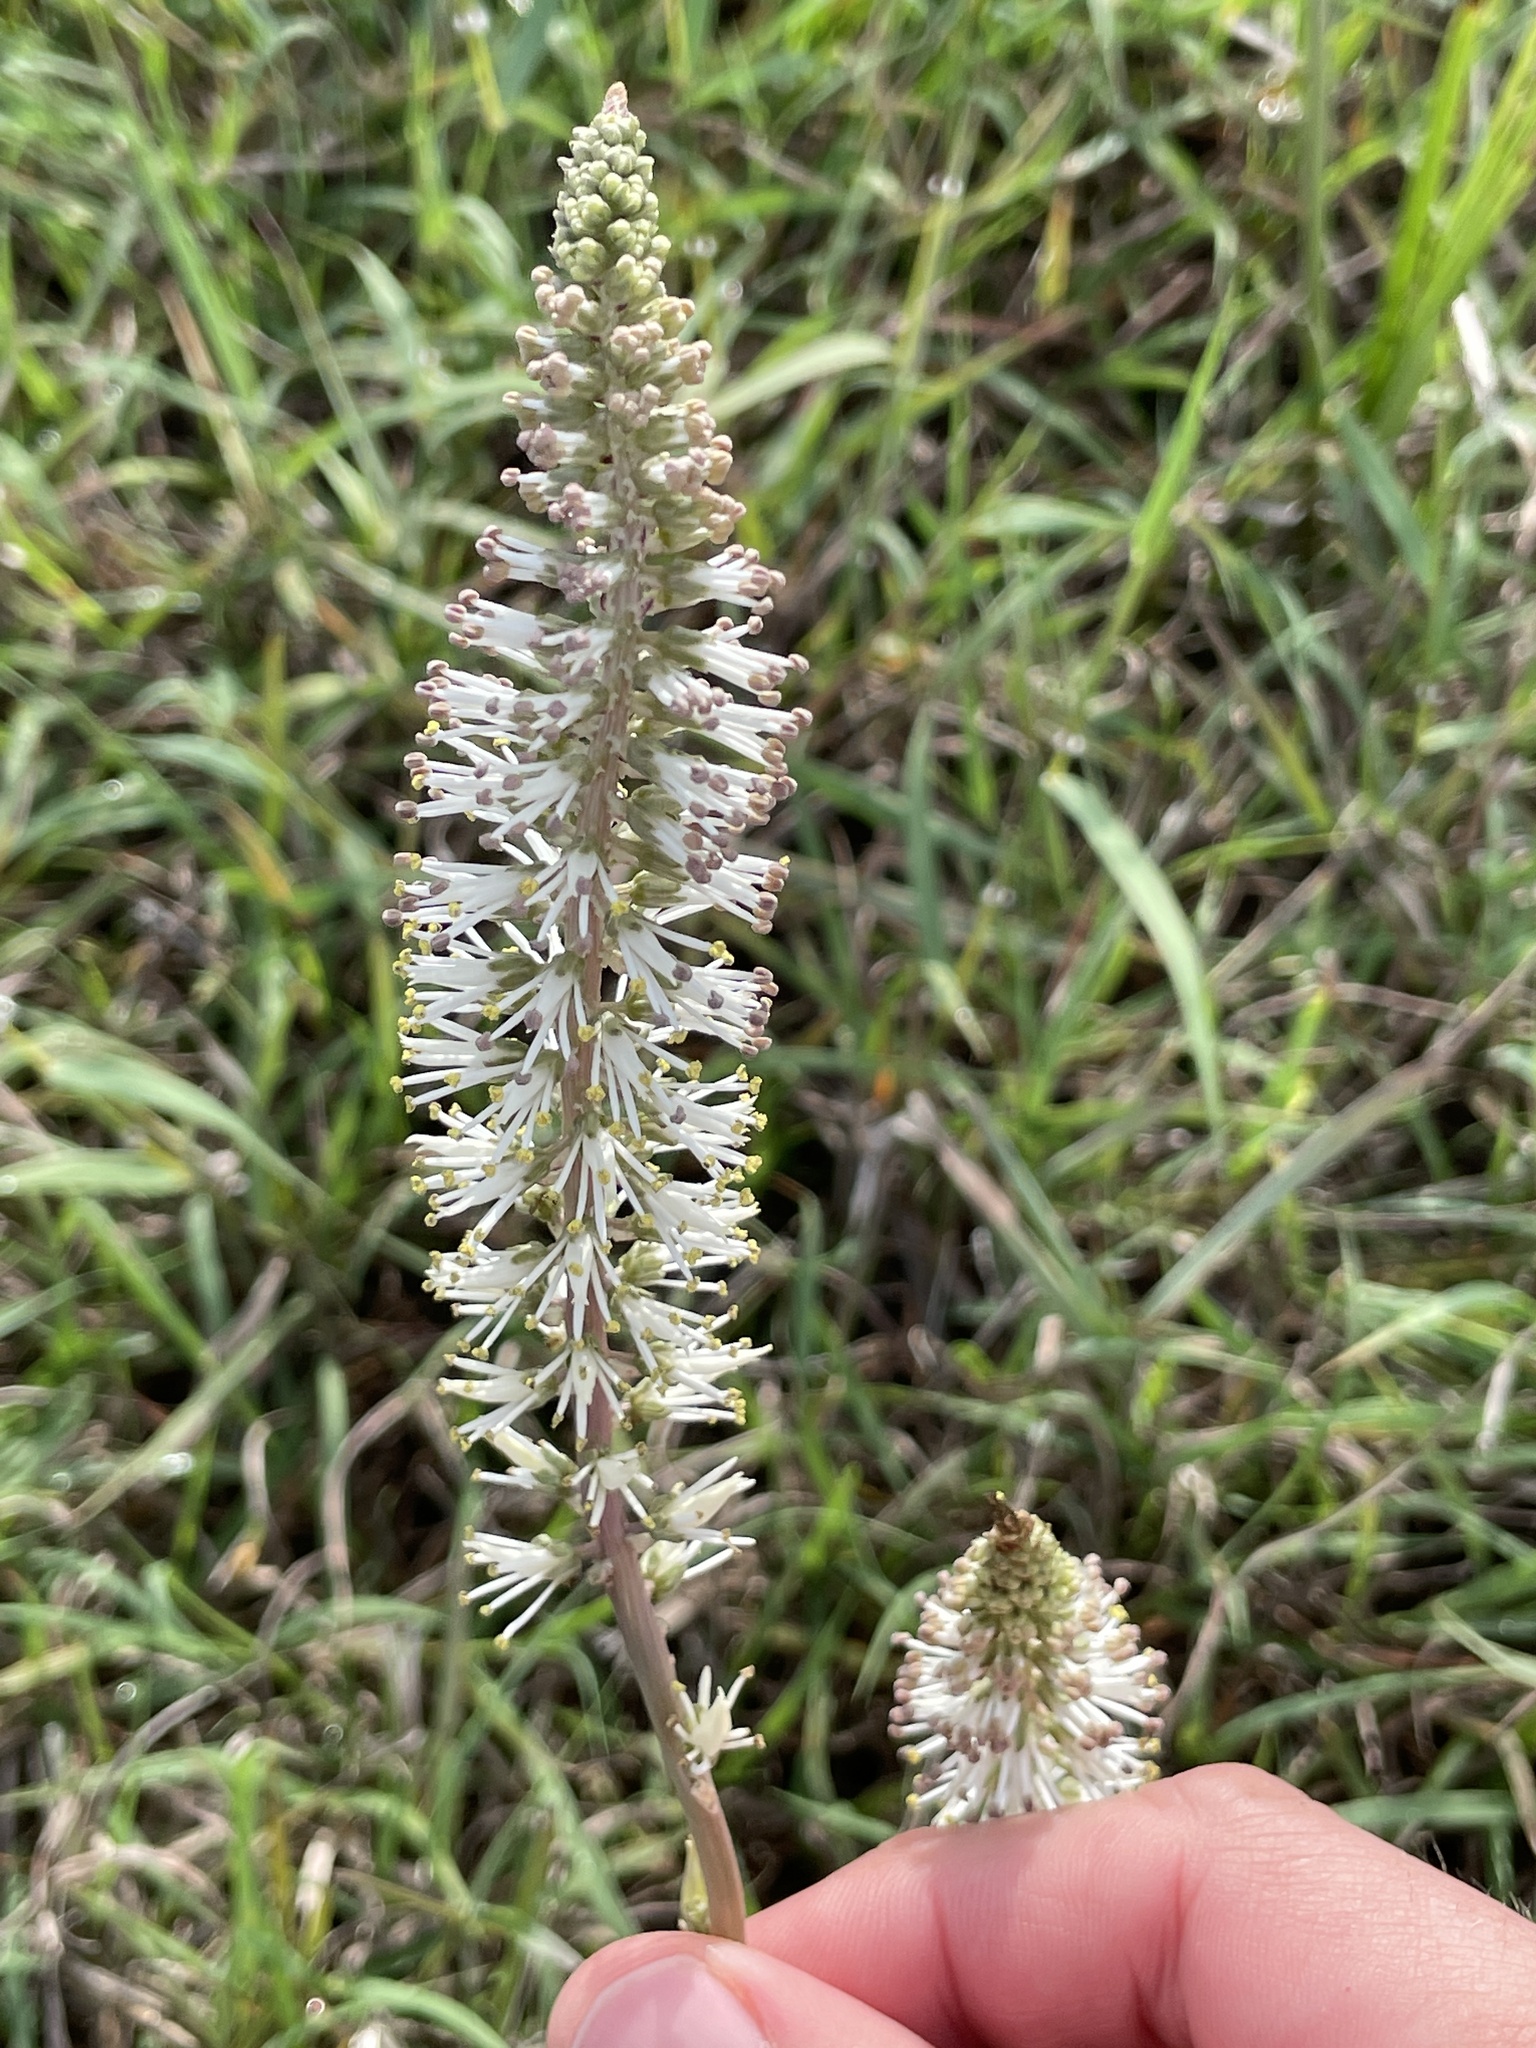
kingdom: Plantae
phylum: Tracheophyta
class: Liliopsida
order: Liliales
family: Melanthiaceae
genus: Schoenocaulon
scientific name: Schoenocaulon ghiesbreghtii
